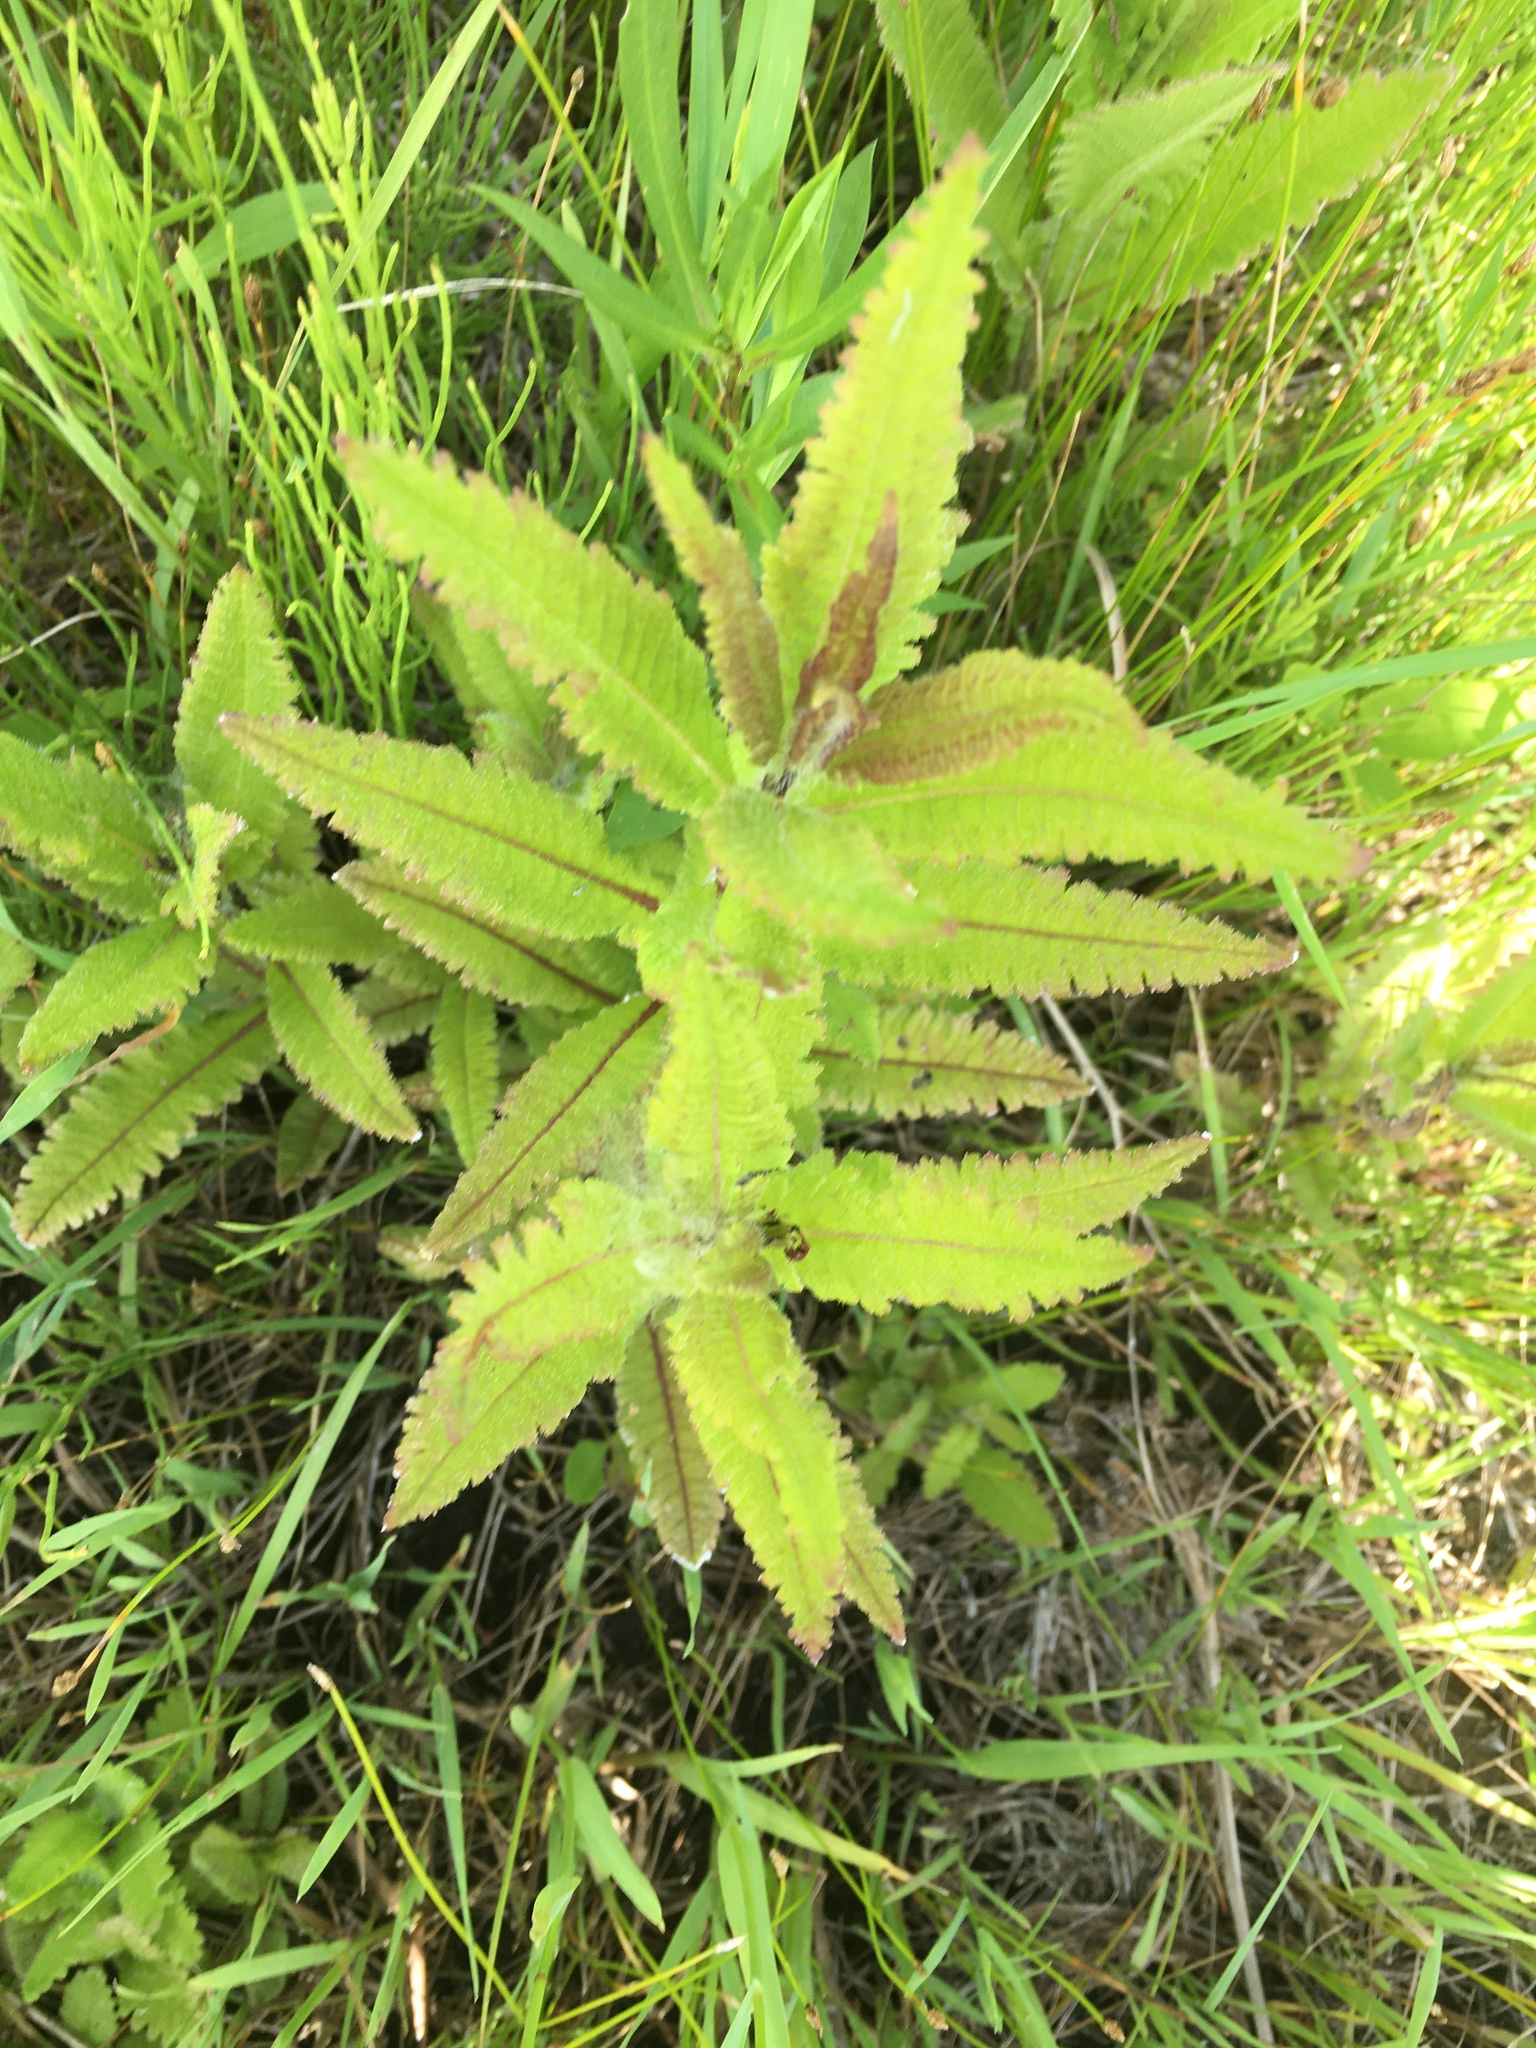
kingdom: Plantae
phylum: Tracheophyta
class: Magnoliopsida
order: Lamiales
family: Orobanchaceae
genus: Pedicularis
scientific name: Pedicularis lanceolata
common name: Swamp lousewort
